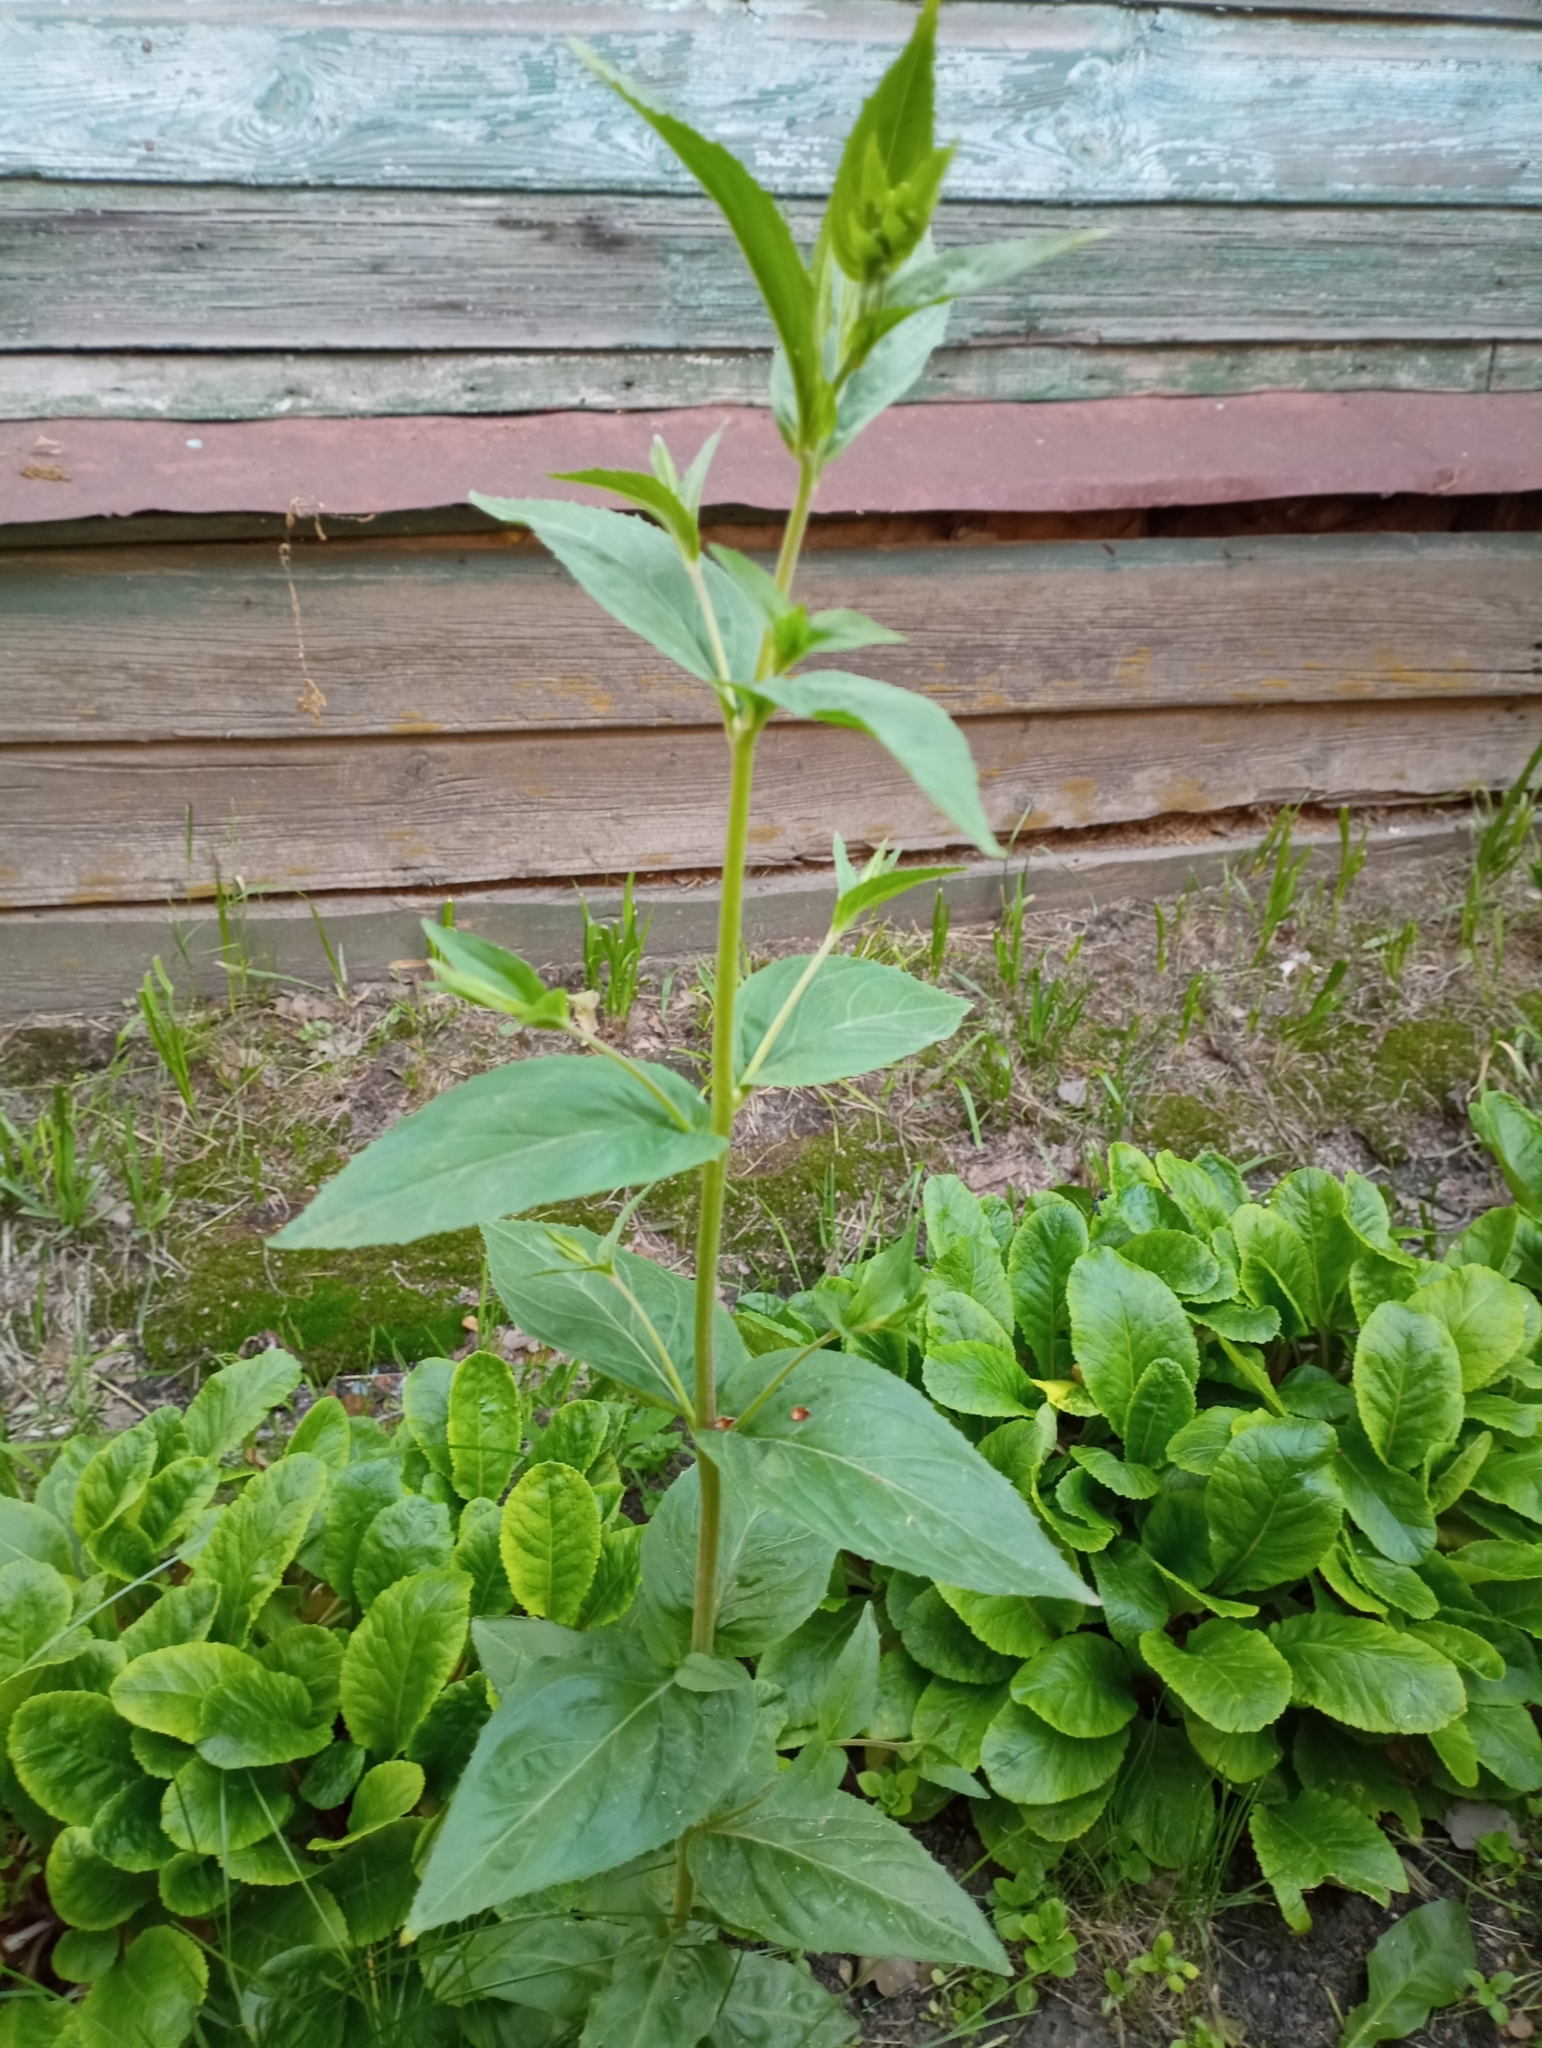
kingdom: Plantae
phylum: Tracheophyta
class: Magnoliopsida
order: Myrtales
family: Onagraceae
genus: Epilobium
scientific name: Epilobium montanum
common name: Broad-leaved willowherb
